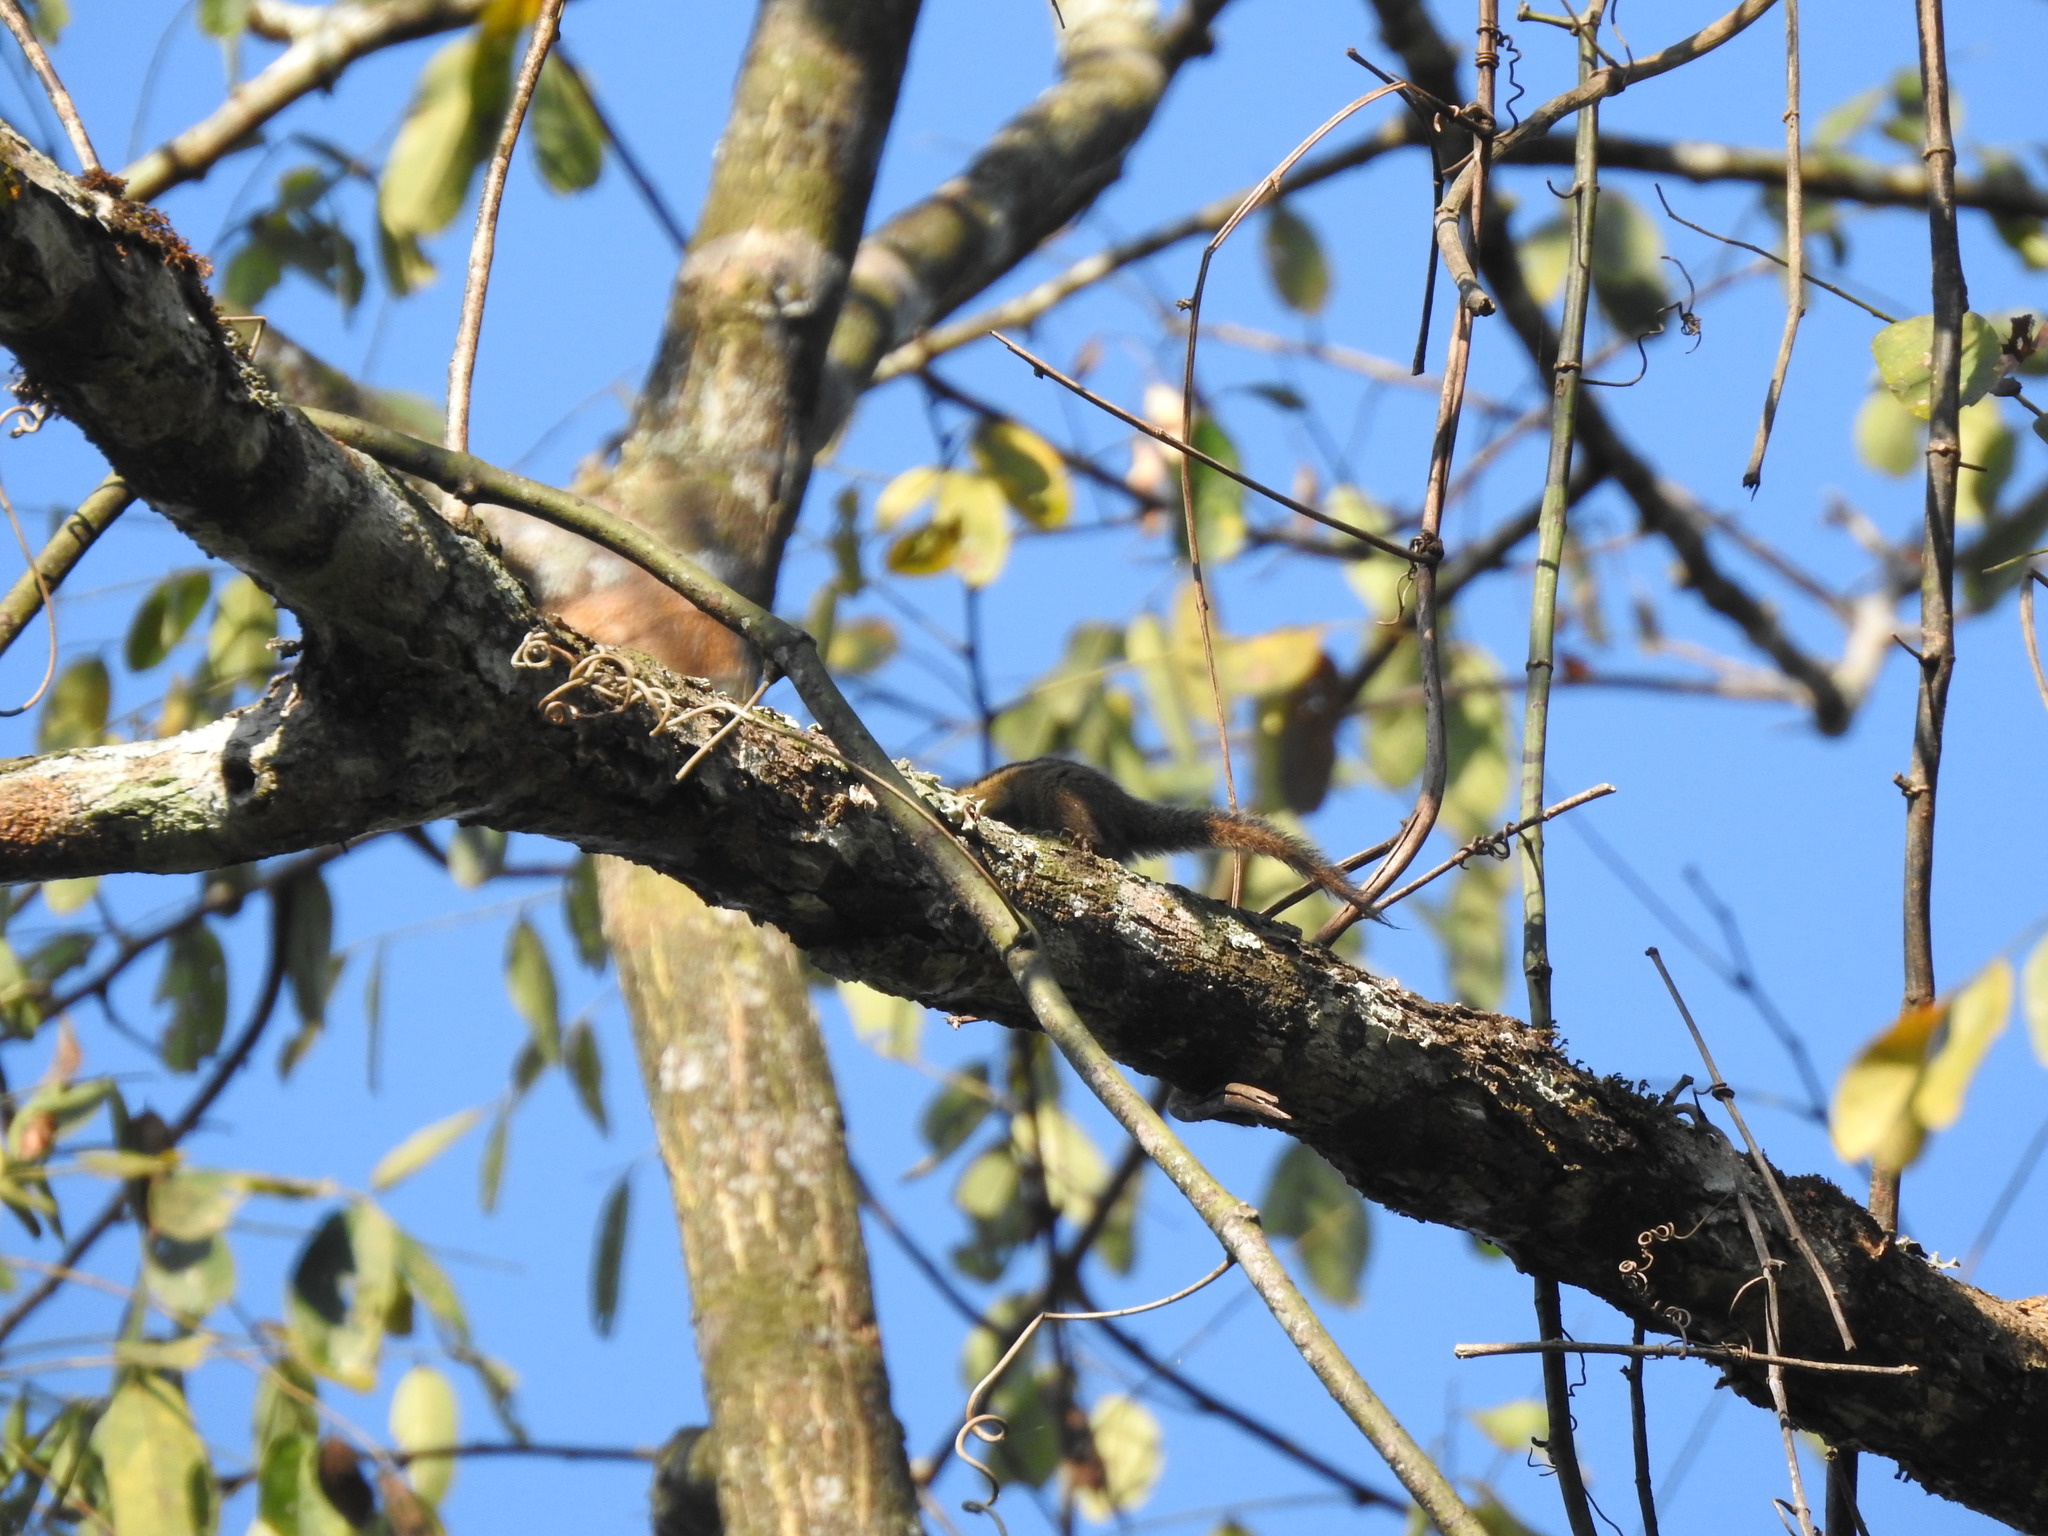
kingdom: Animalia
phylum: Chordata
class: Mammalia
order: Rodentia
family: Sciuridae
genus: Tamiops
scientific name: Tamiops mcclellandii
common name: Himalayan striped squirrel
